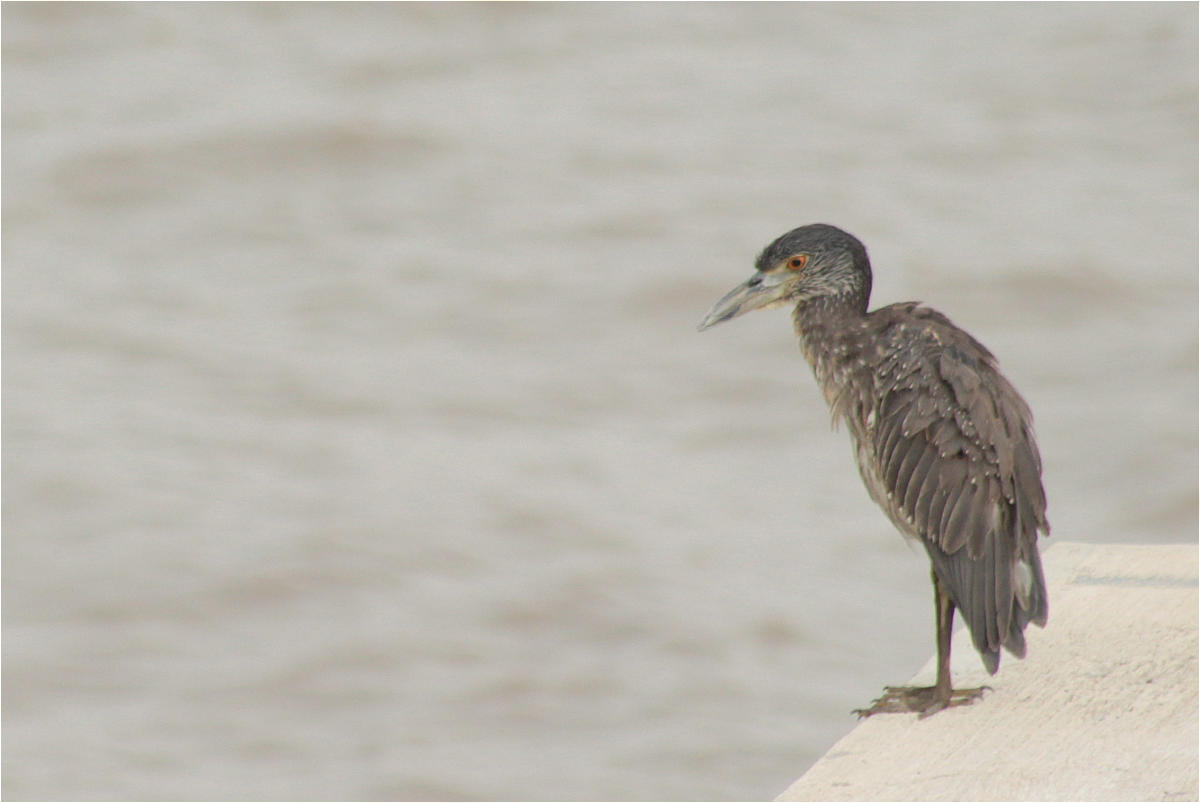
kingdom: Animalia
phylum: Chordata
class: Aves
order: Pelecaniformes
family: Ardeidae
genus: Nyctanassa
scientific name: Nyctanassa violacea
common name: Yellow-crowned night heron
